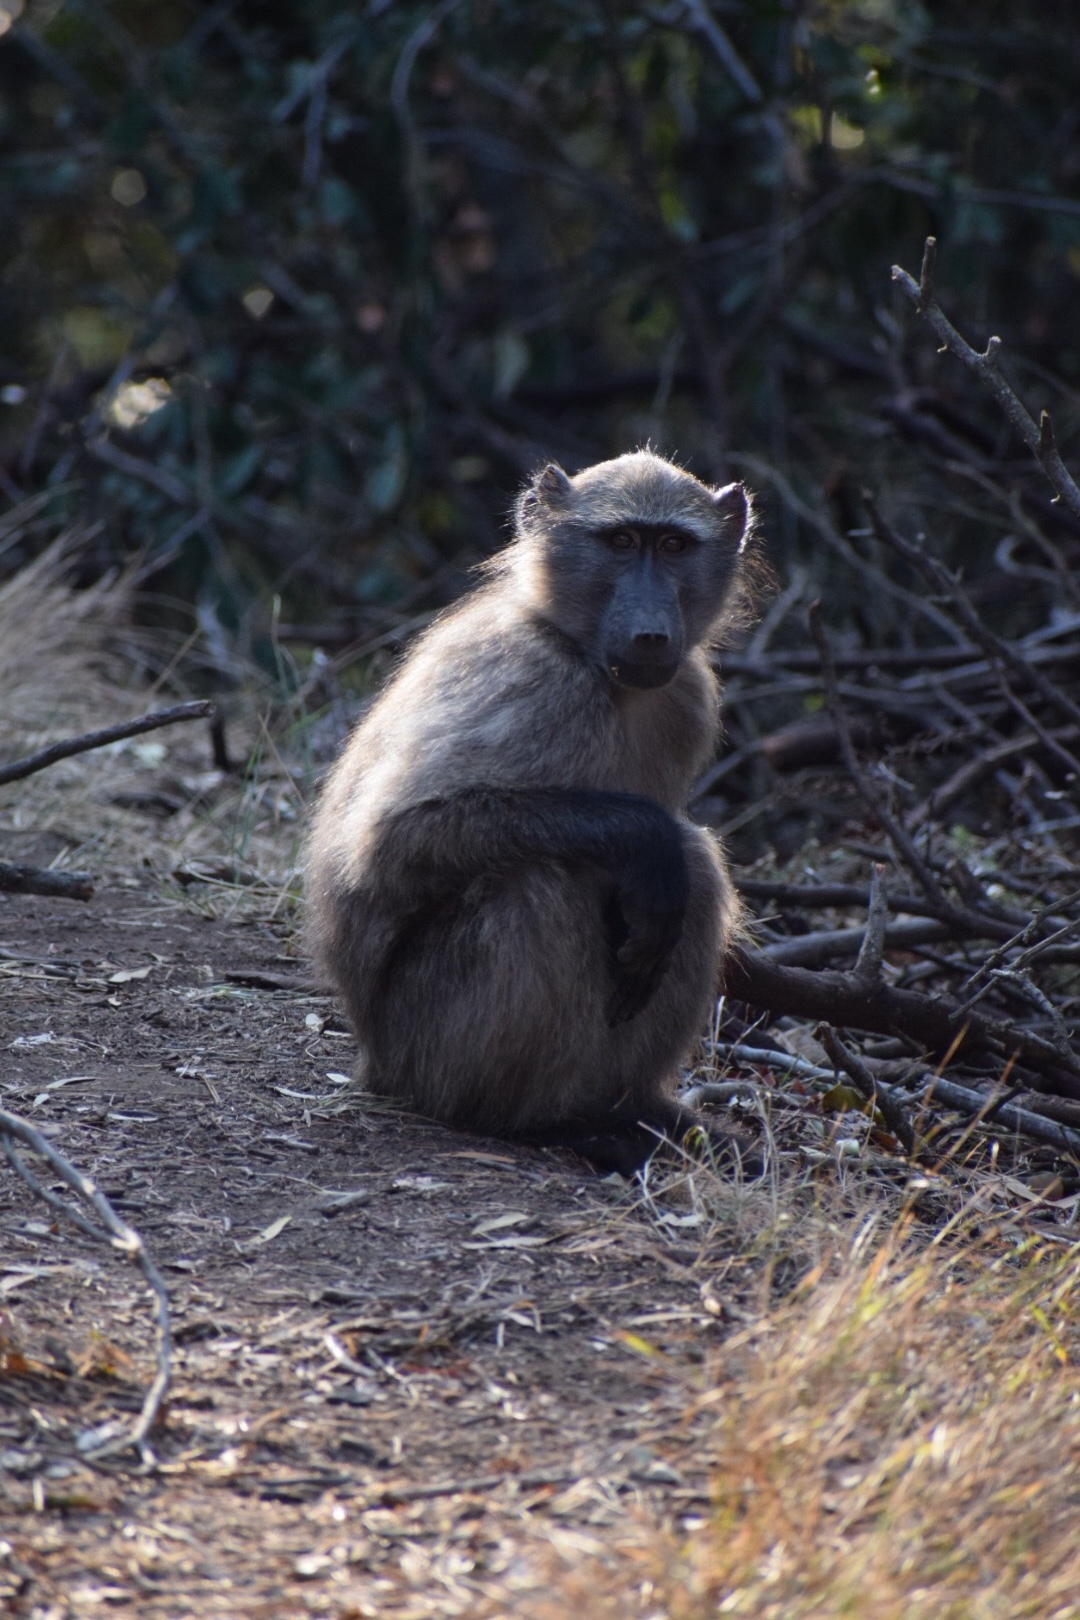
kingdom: Animalia
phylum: Chordata
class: Mammalia
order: Primates
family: Cercopithecidae
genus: Papio
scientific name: Papio ursinus
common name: Chacma baboon
